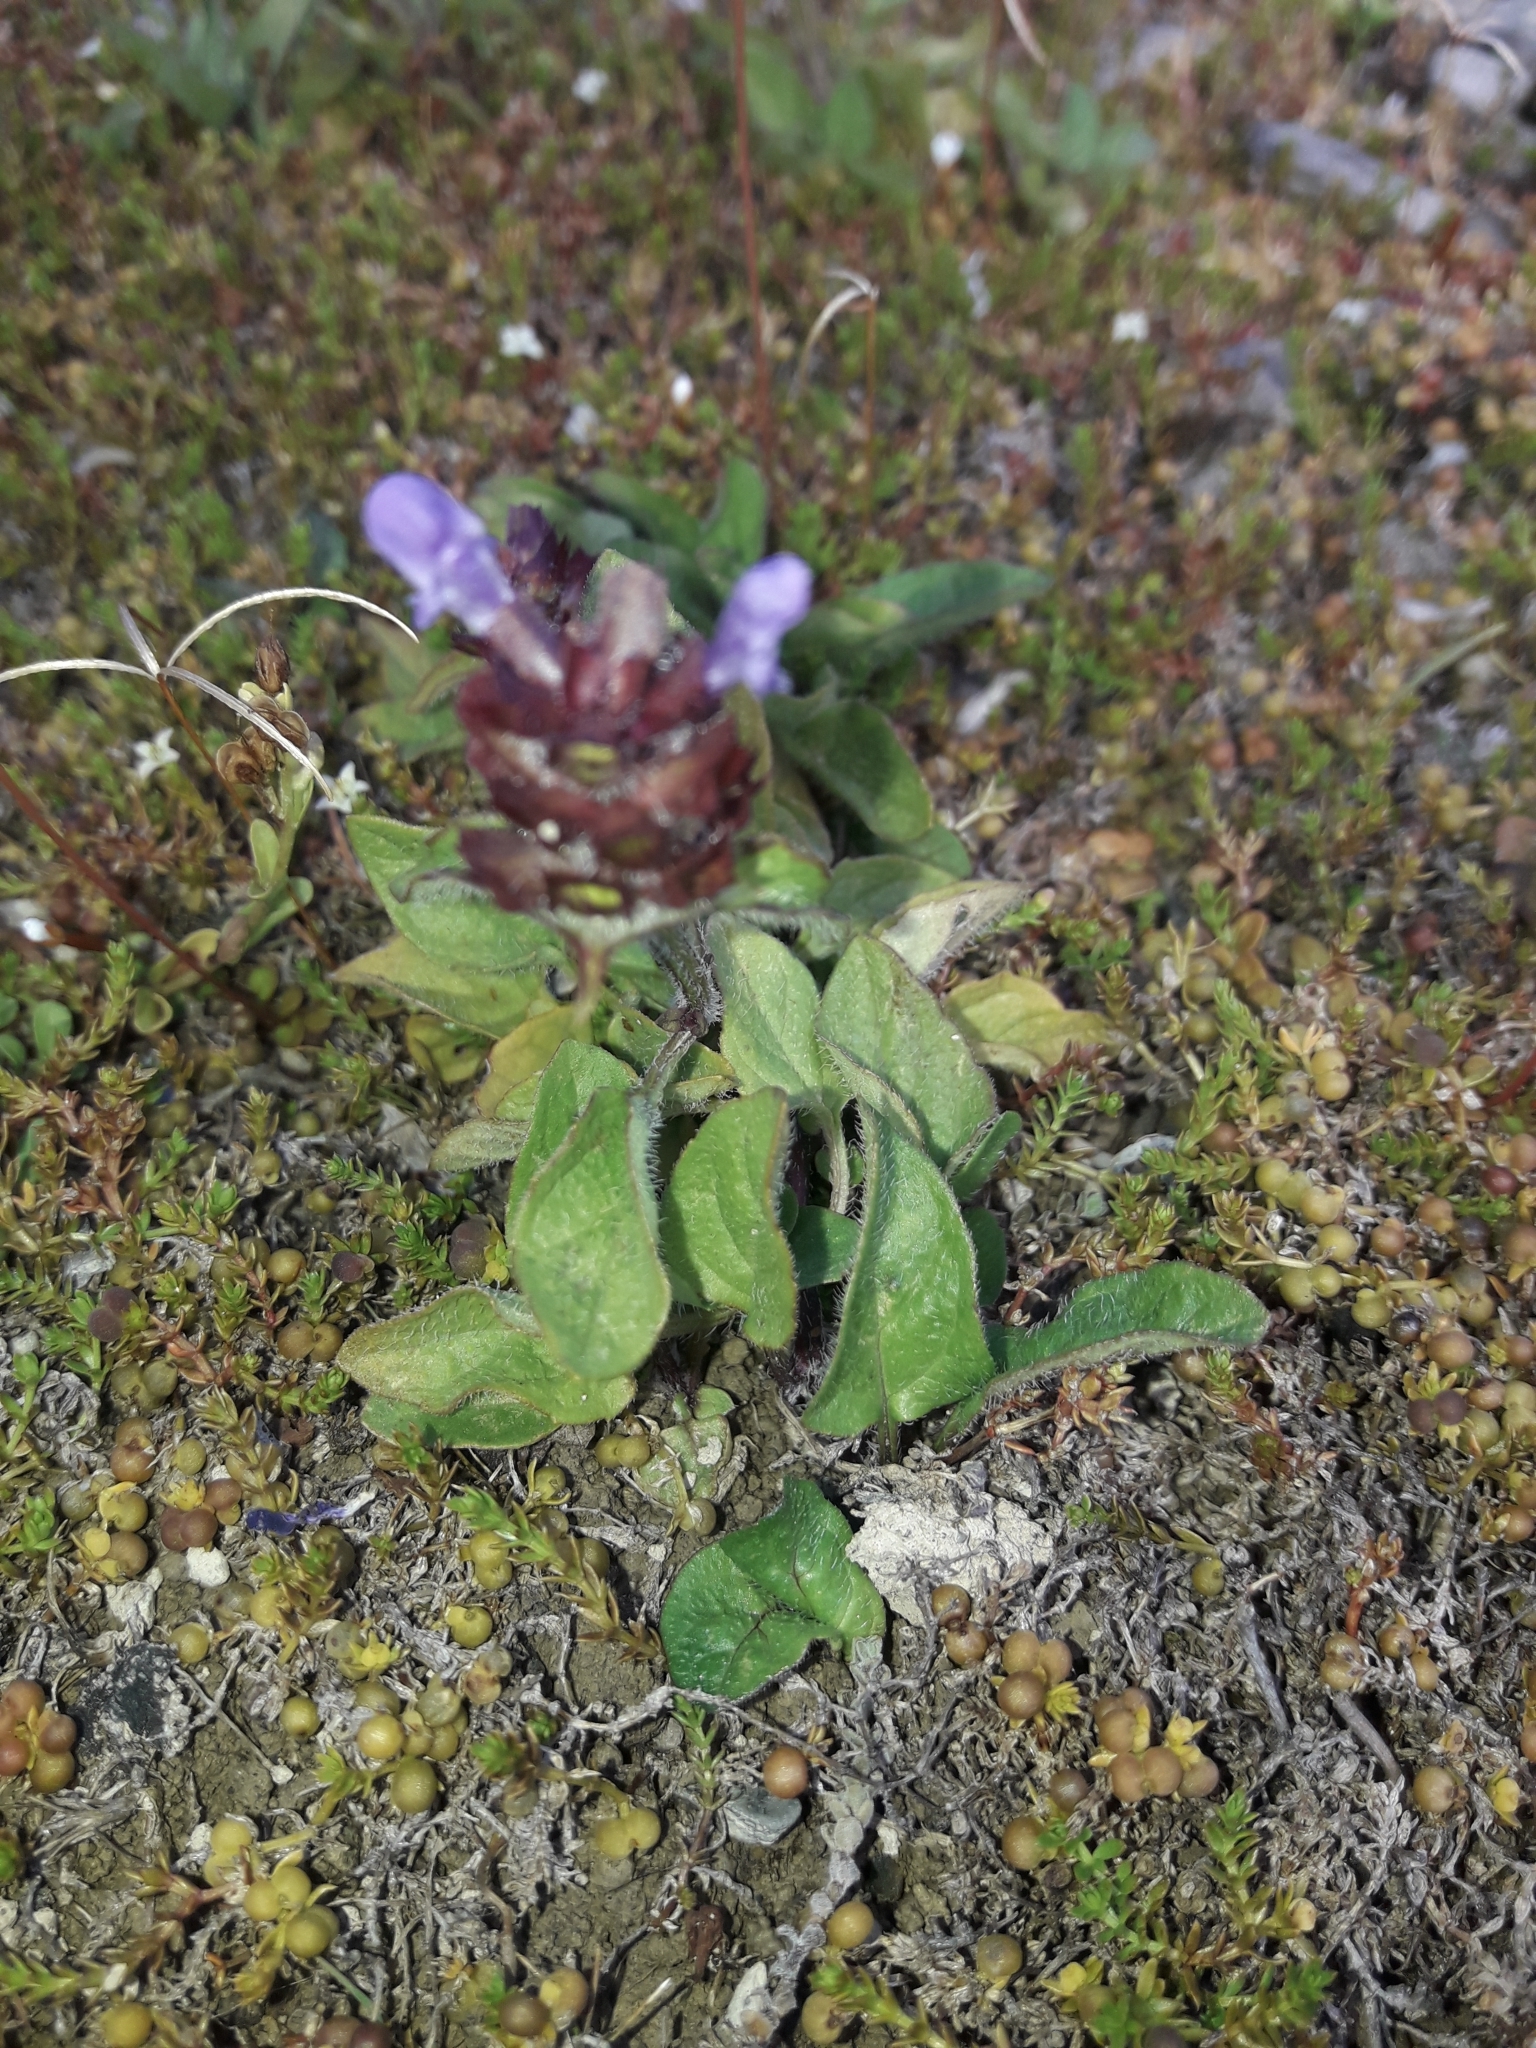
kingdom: Plantae
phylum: Tracheophyta
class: Magnoliopsida
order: Lamiales
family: Lamiaceae
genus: Prunella
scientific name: Prunella vulgaris
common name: Heal-all
